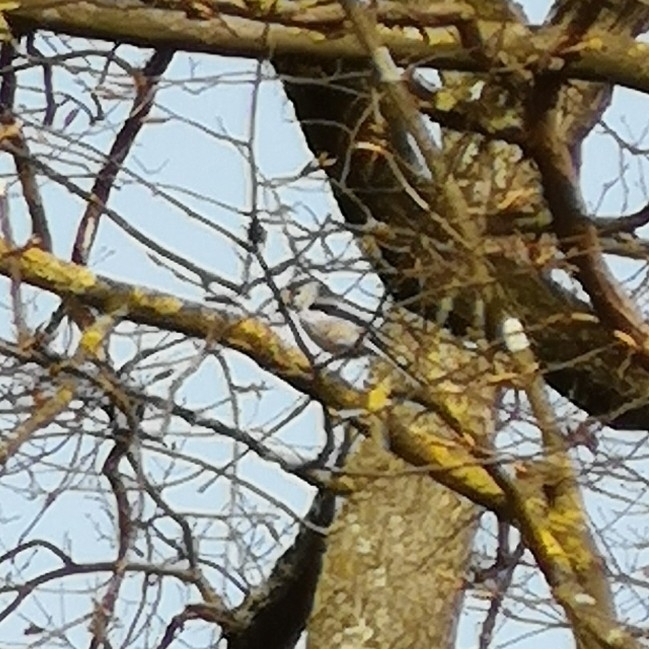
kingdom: Animalia
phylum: Chordata
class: Aves
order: Passeriformes
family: Aegithalidae
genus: Aegithalos
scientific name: Aegithalos caudatus
